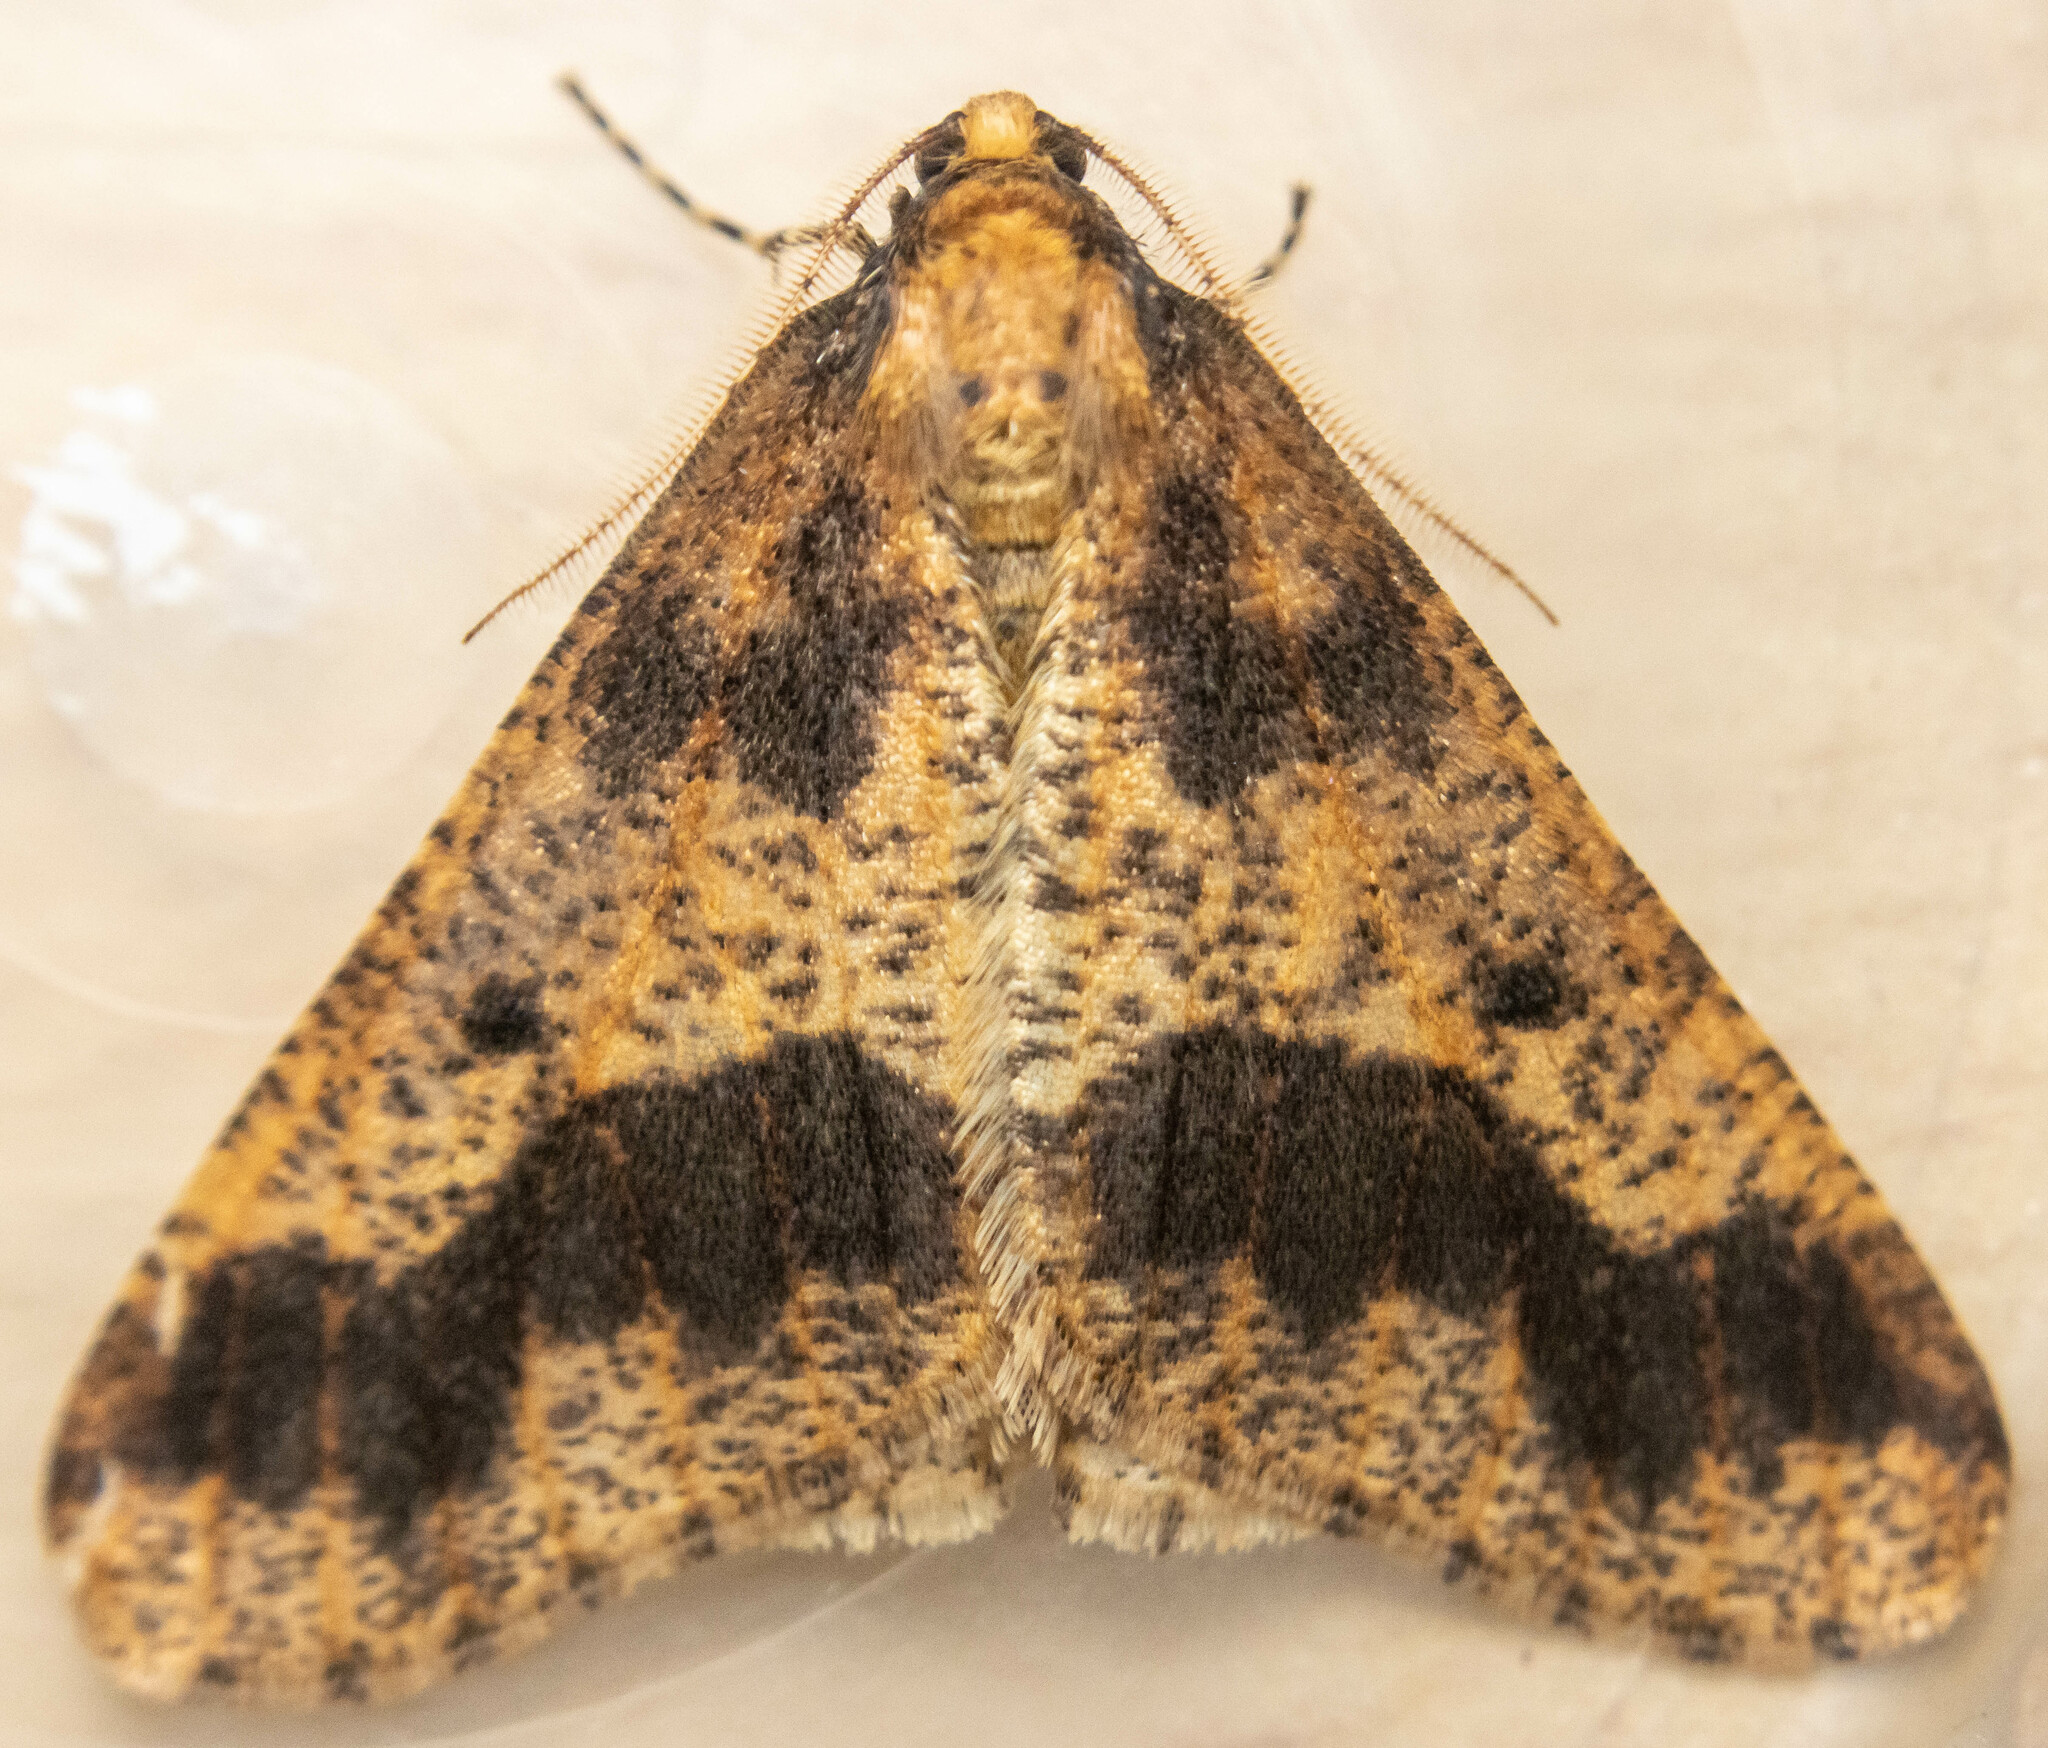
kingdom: Animalia
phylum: Arthropoda
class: Insecta
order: Lepidoptera
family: Geometridae
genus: Erannis
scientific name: Erannis defoliaria
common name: Mottled umber
